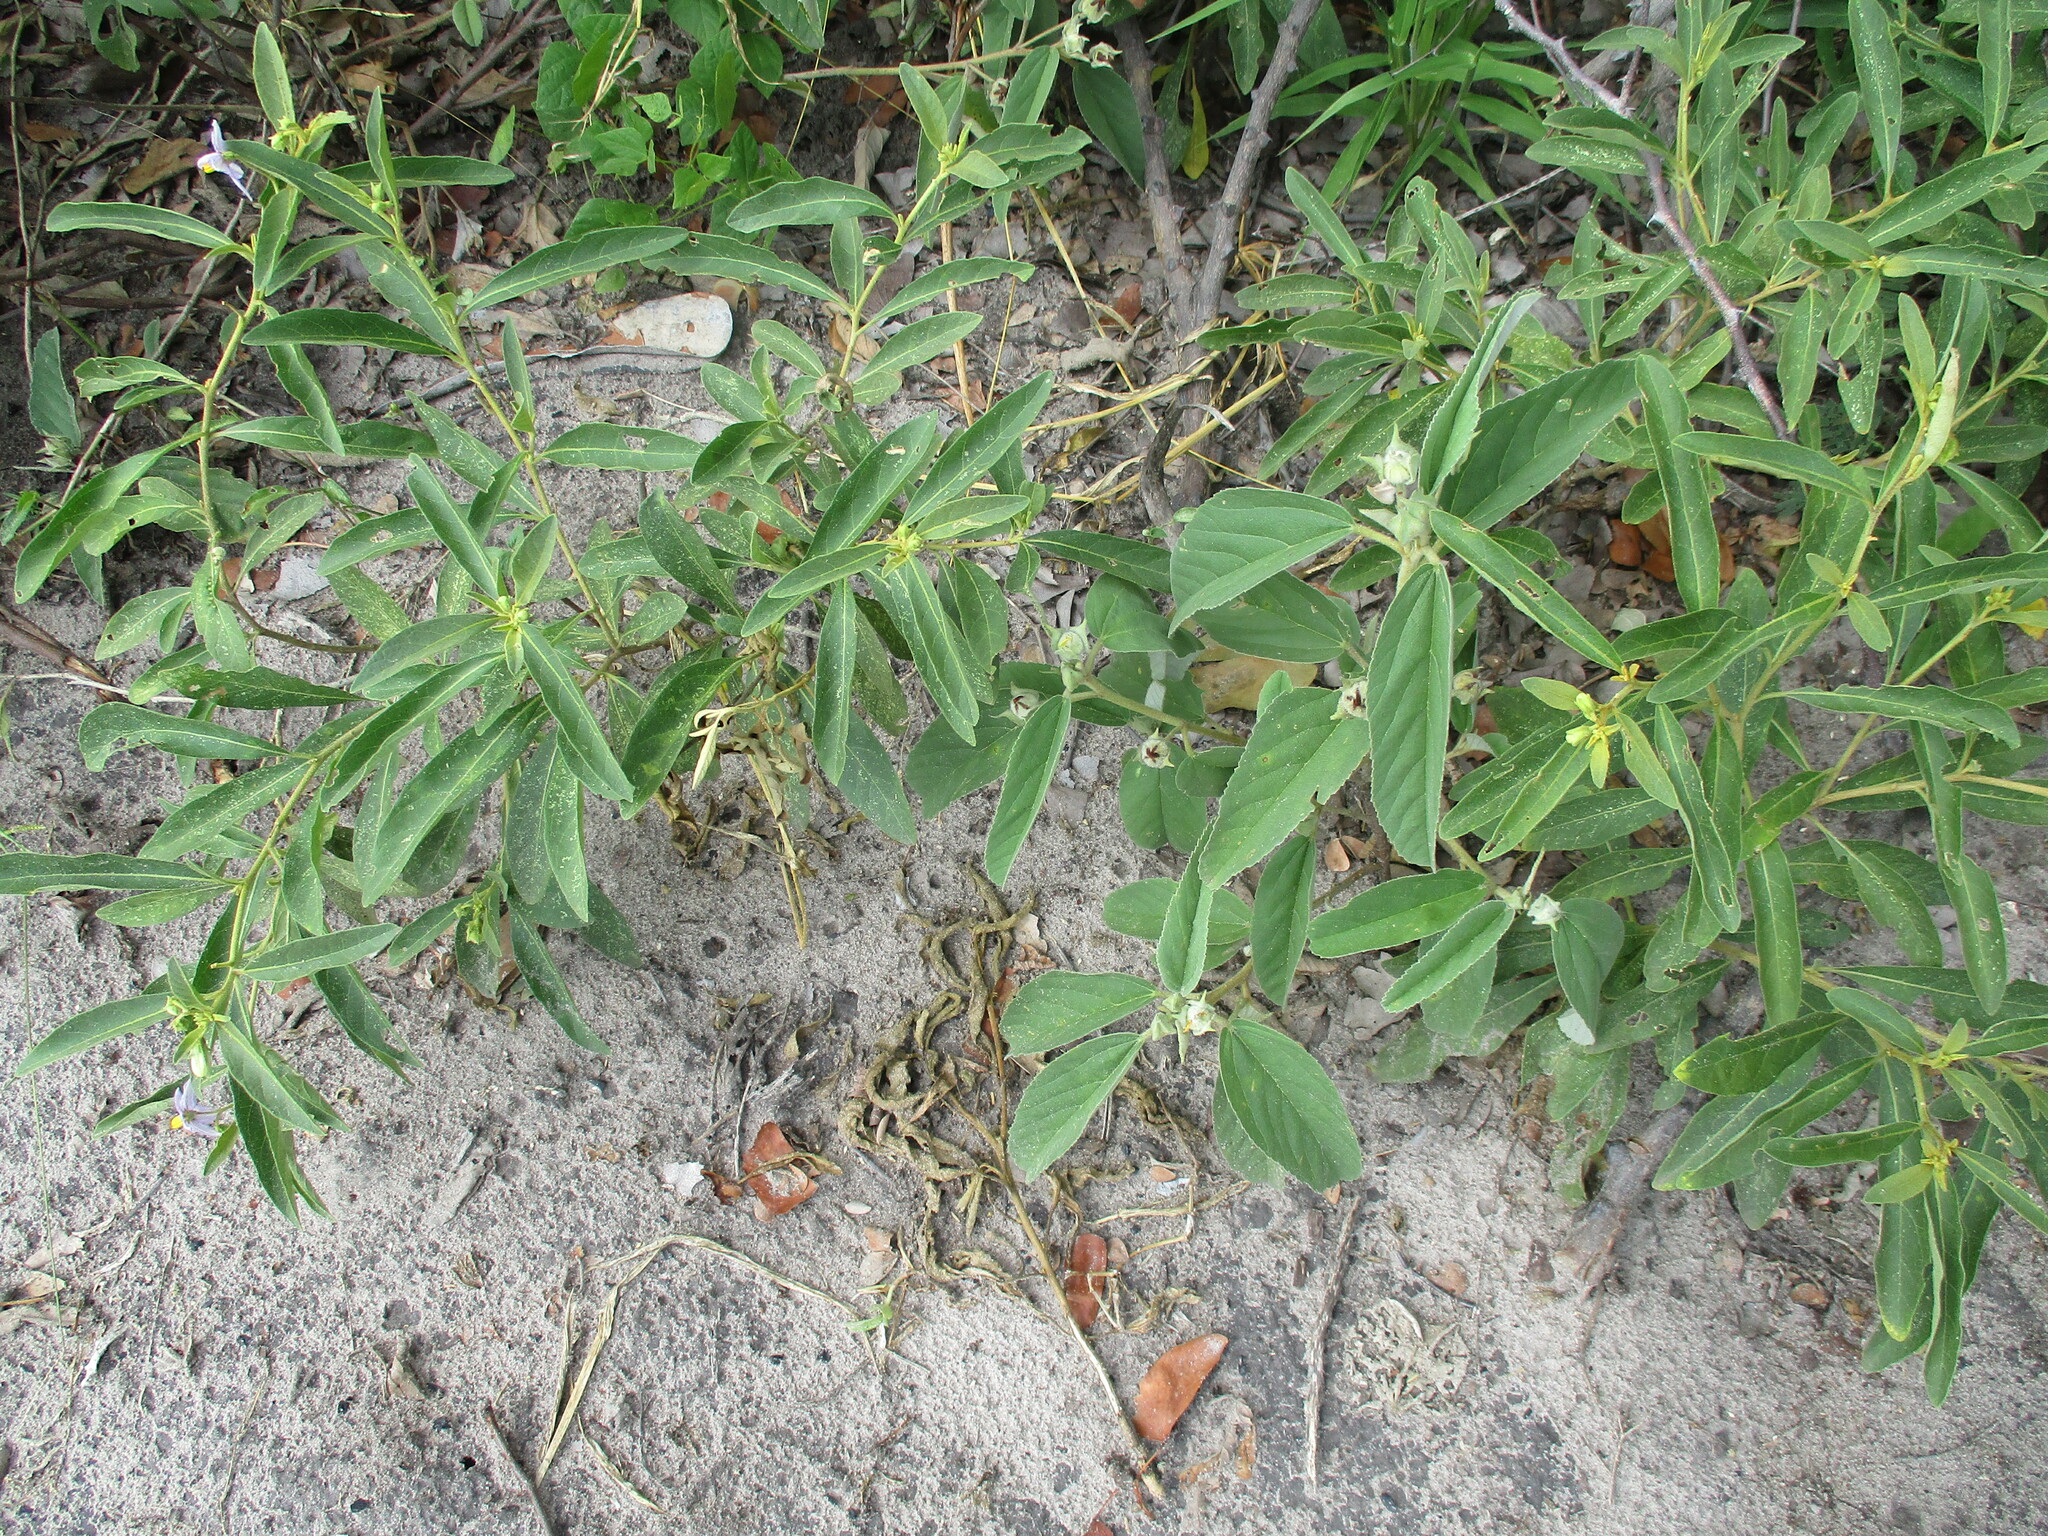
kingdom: Plantae
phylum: Tracheophyta
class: Magnoliopsida
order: Solanales
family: Solanaceae
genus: Solanum
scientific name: Solanum campylacanthum
